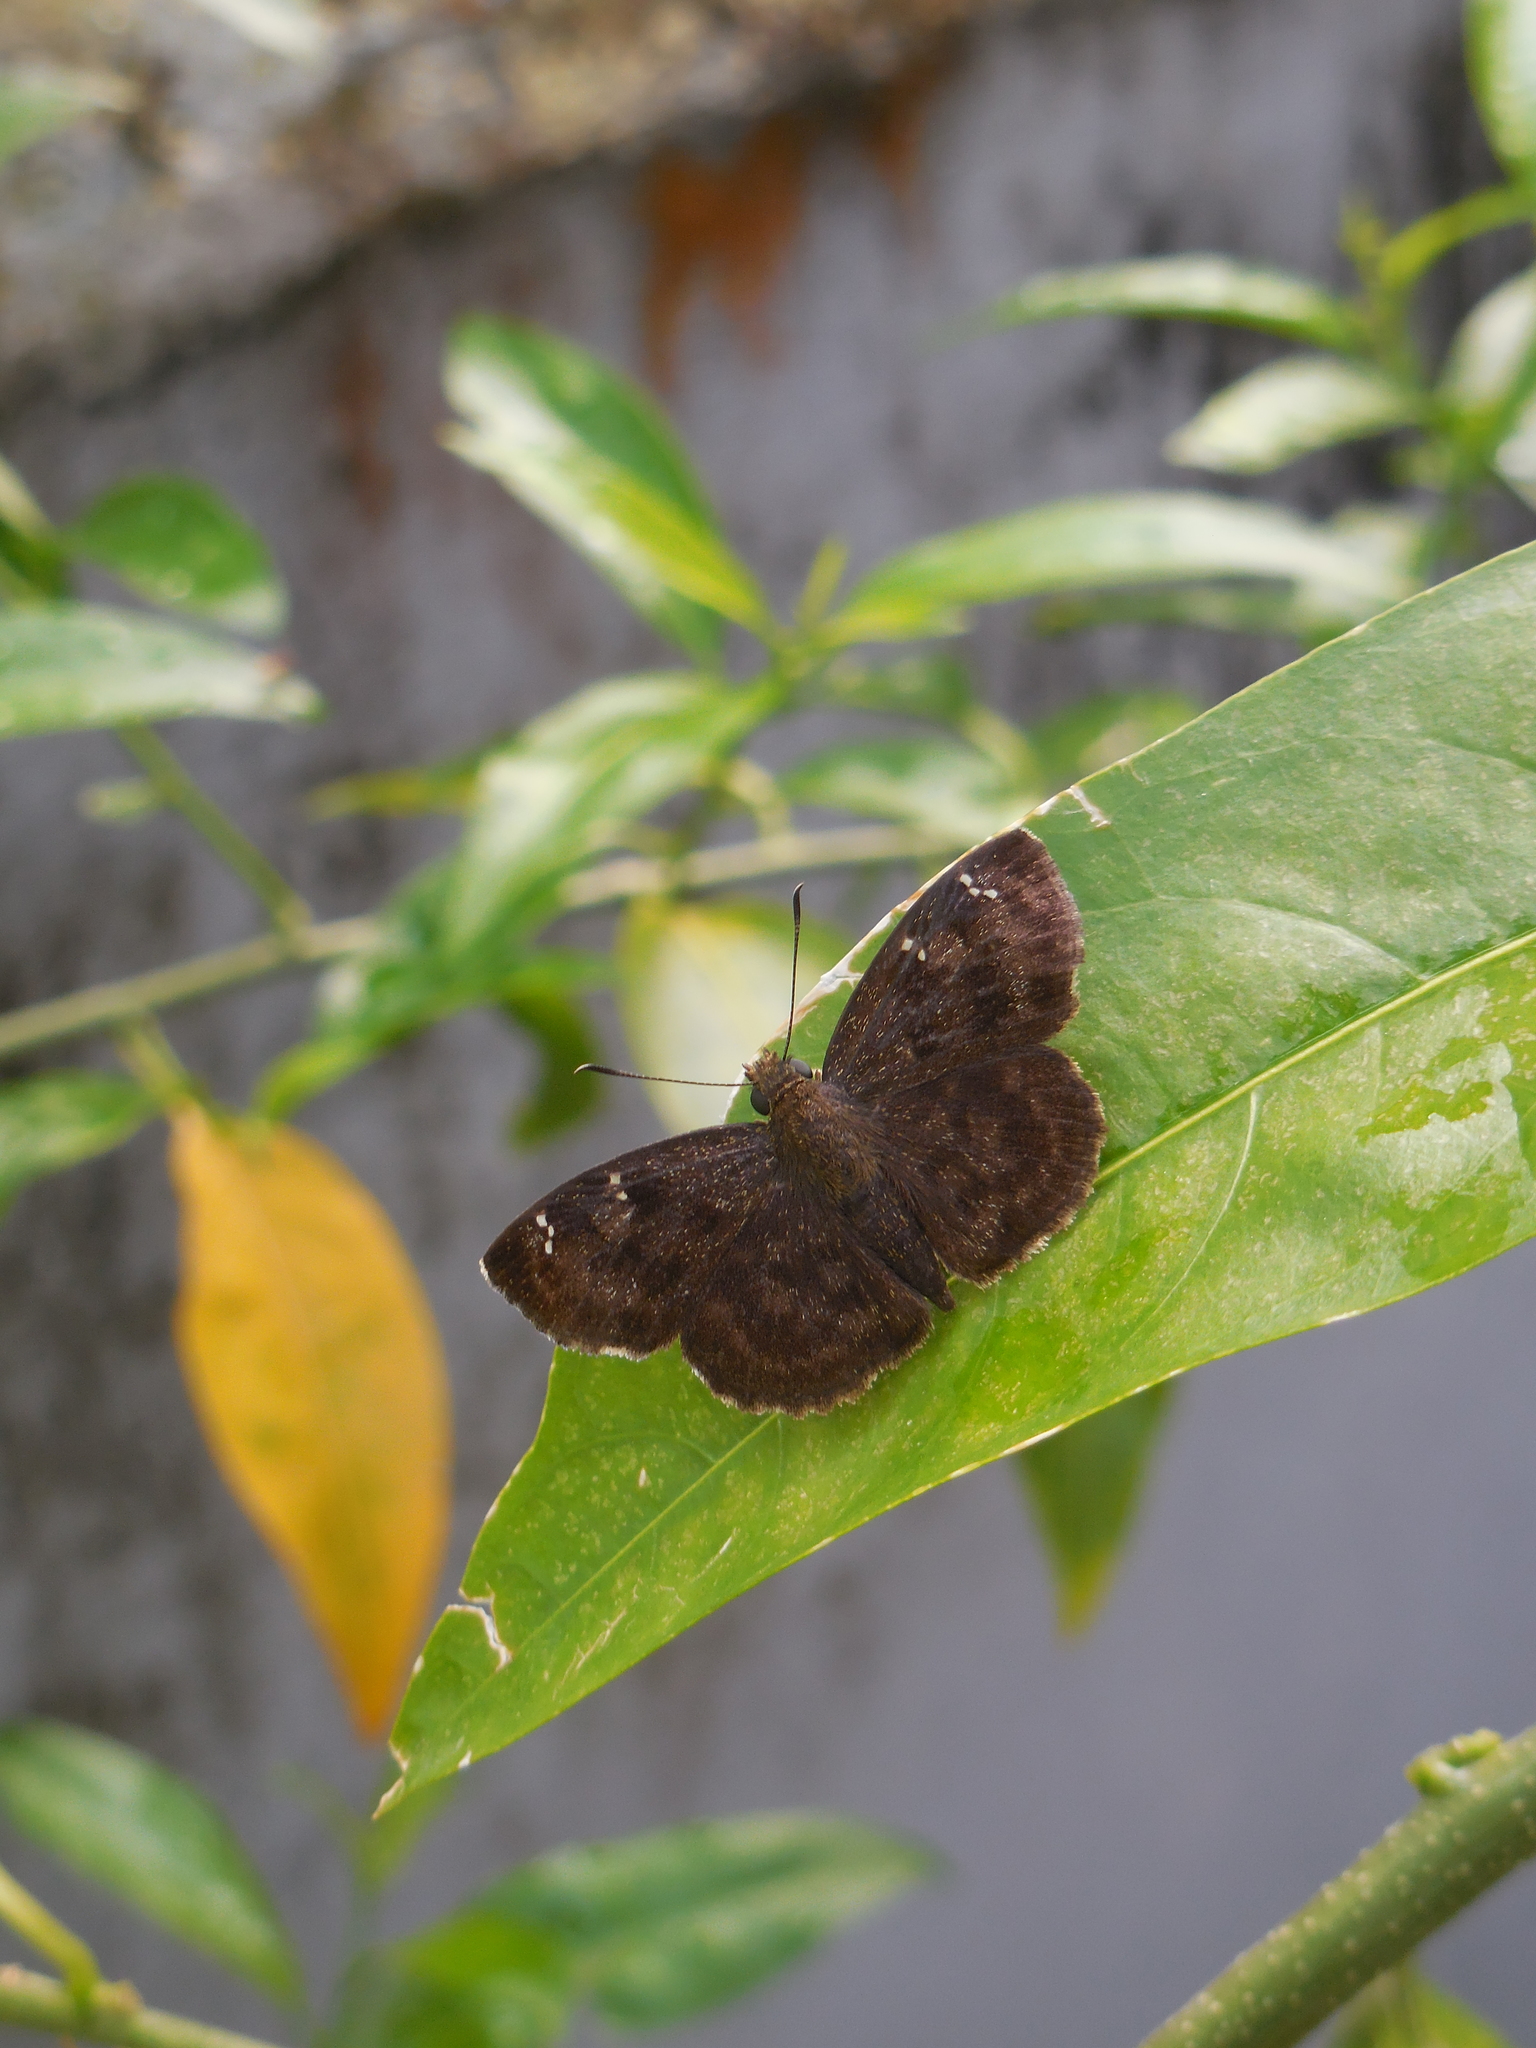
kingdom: Animalia
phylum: Arthropoda
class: Insecta
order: Lepidoptera
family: Hesperiidae
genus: Sarangesa
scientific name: Sarangesa dasahara
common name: Common small flat
